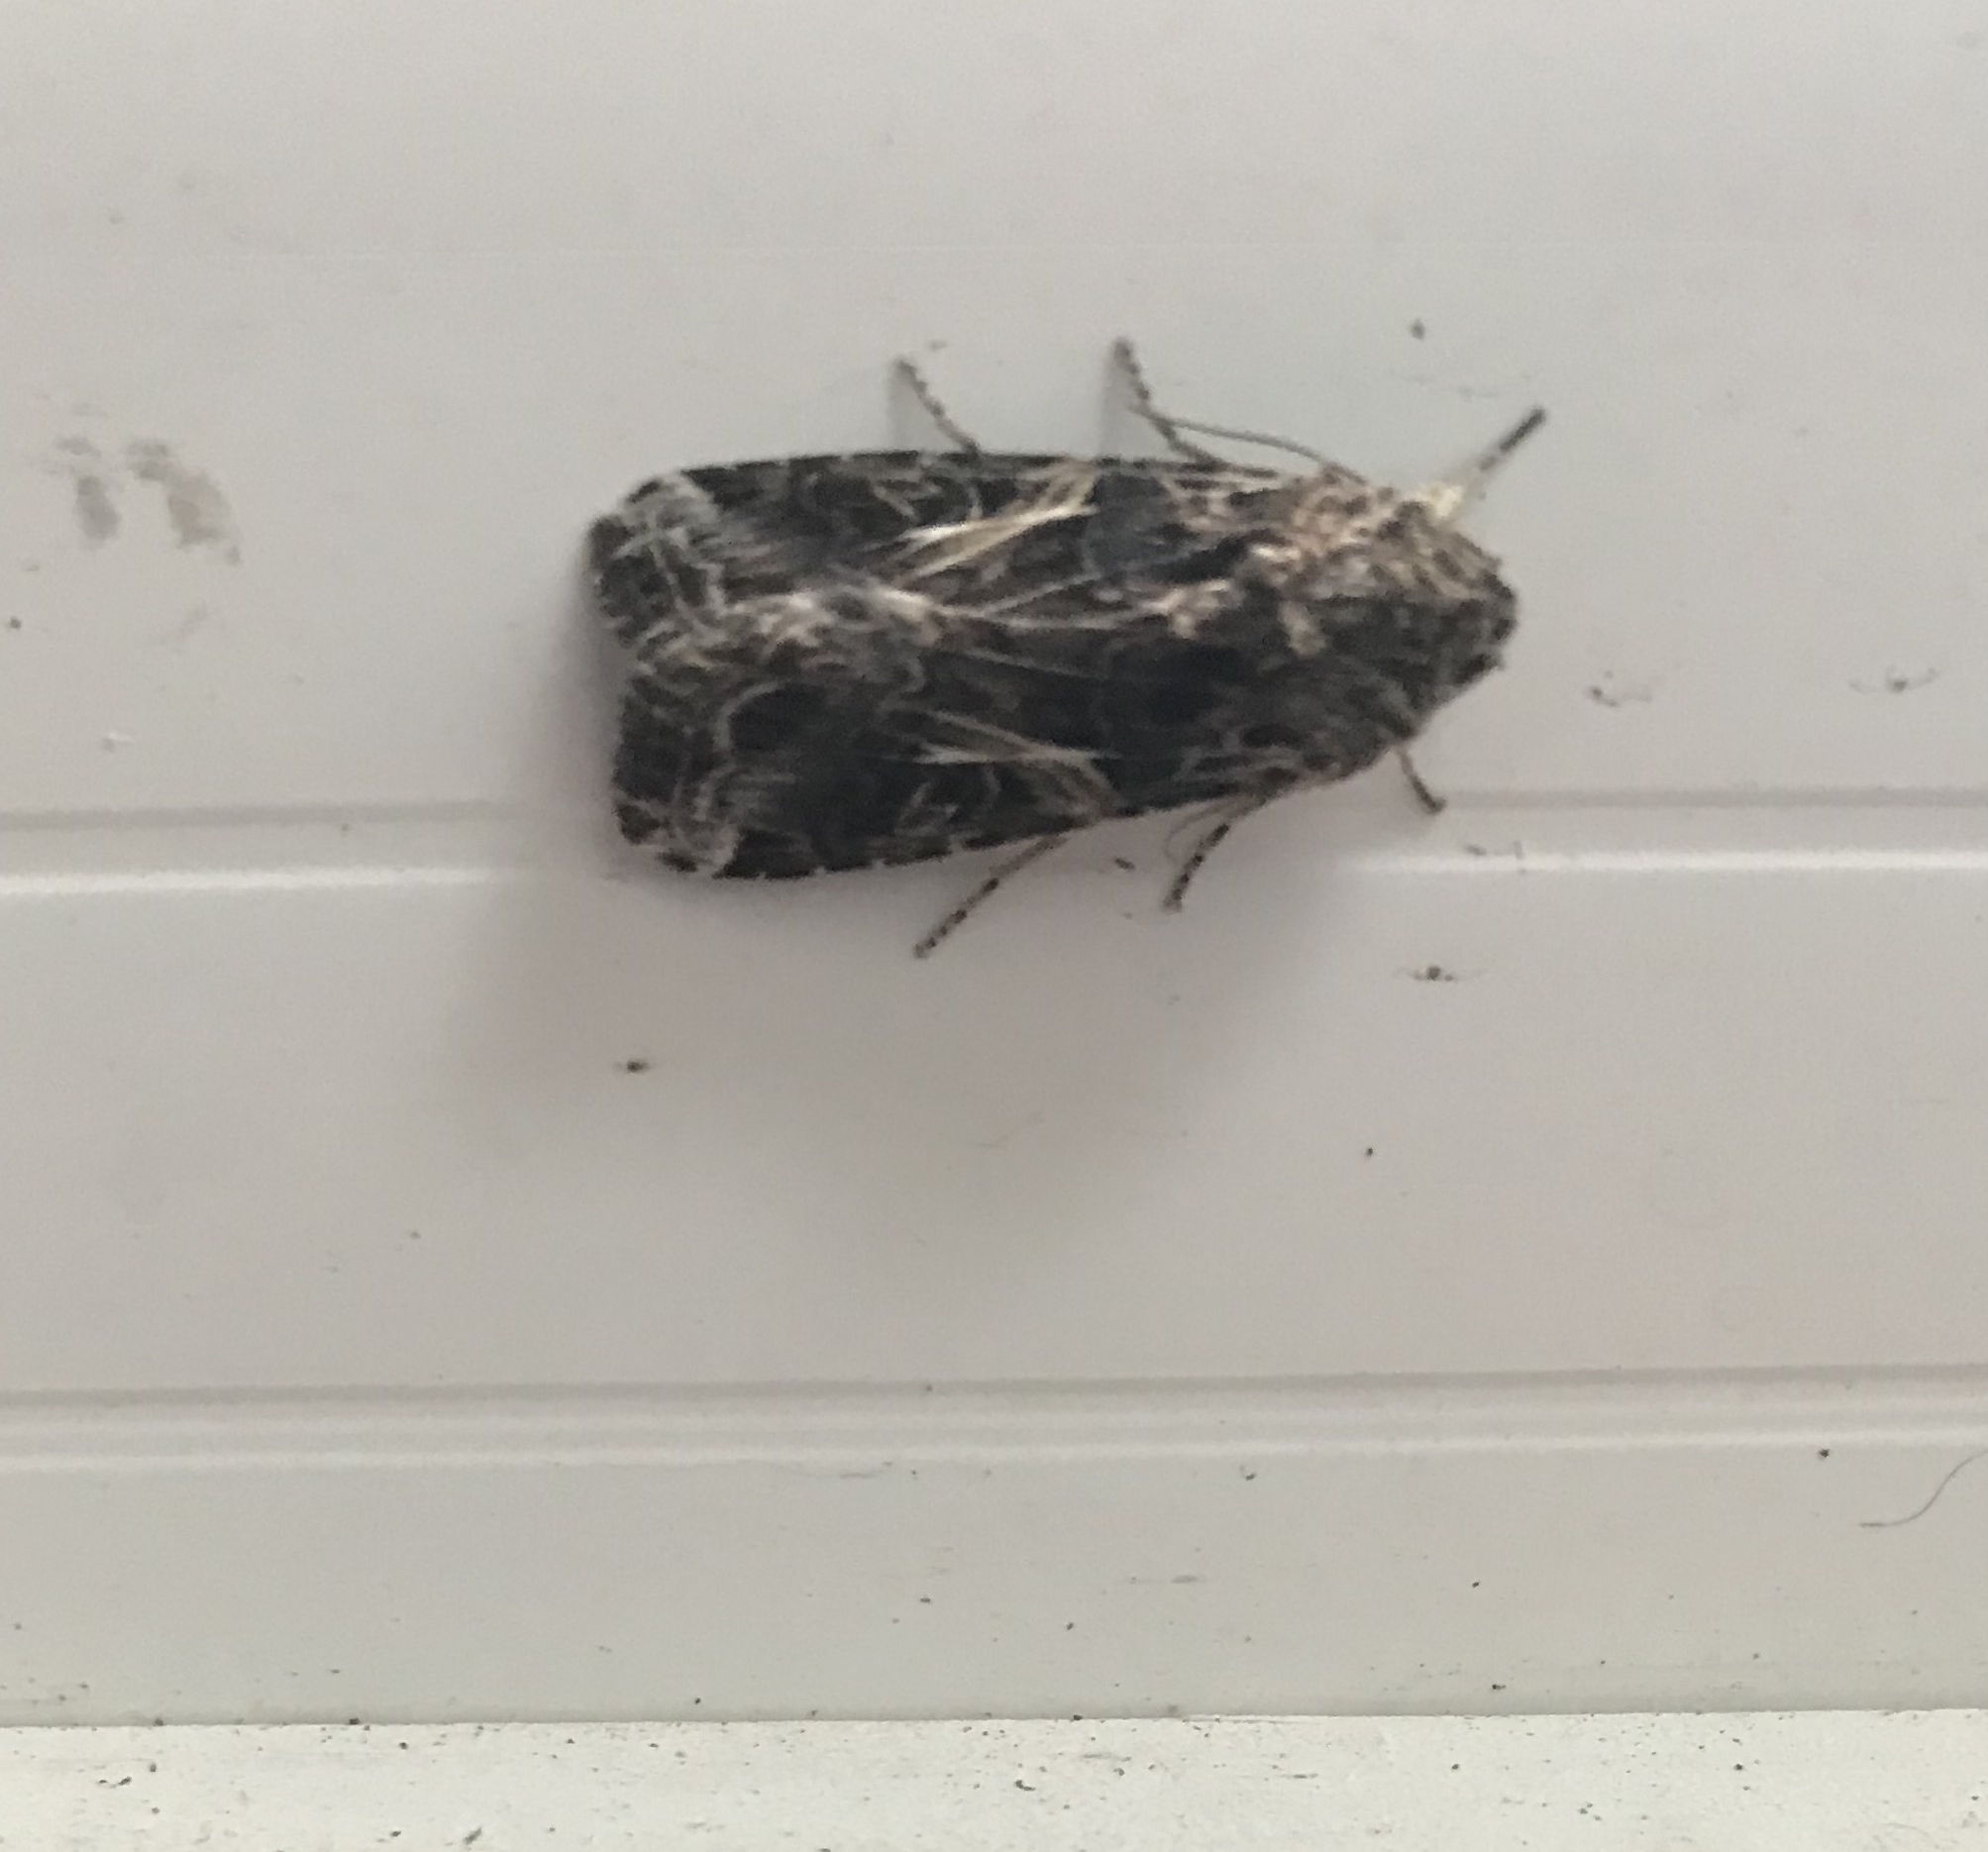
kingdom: Animalia
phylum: Arthropoda
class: Insecta
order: Lepidoptera
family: Noctuidae
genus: Spodoptera
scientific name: Spodoptera ornithogalli
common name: Yellow-striped armyworm
